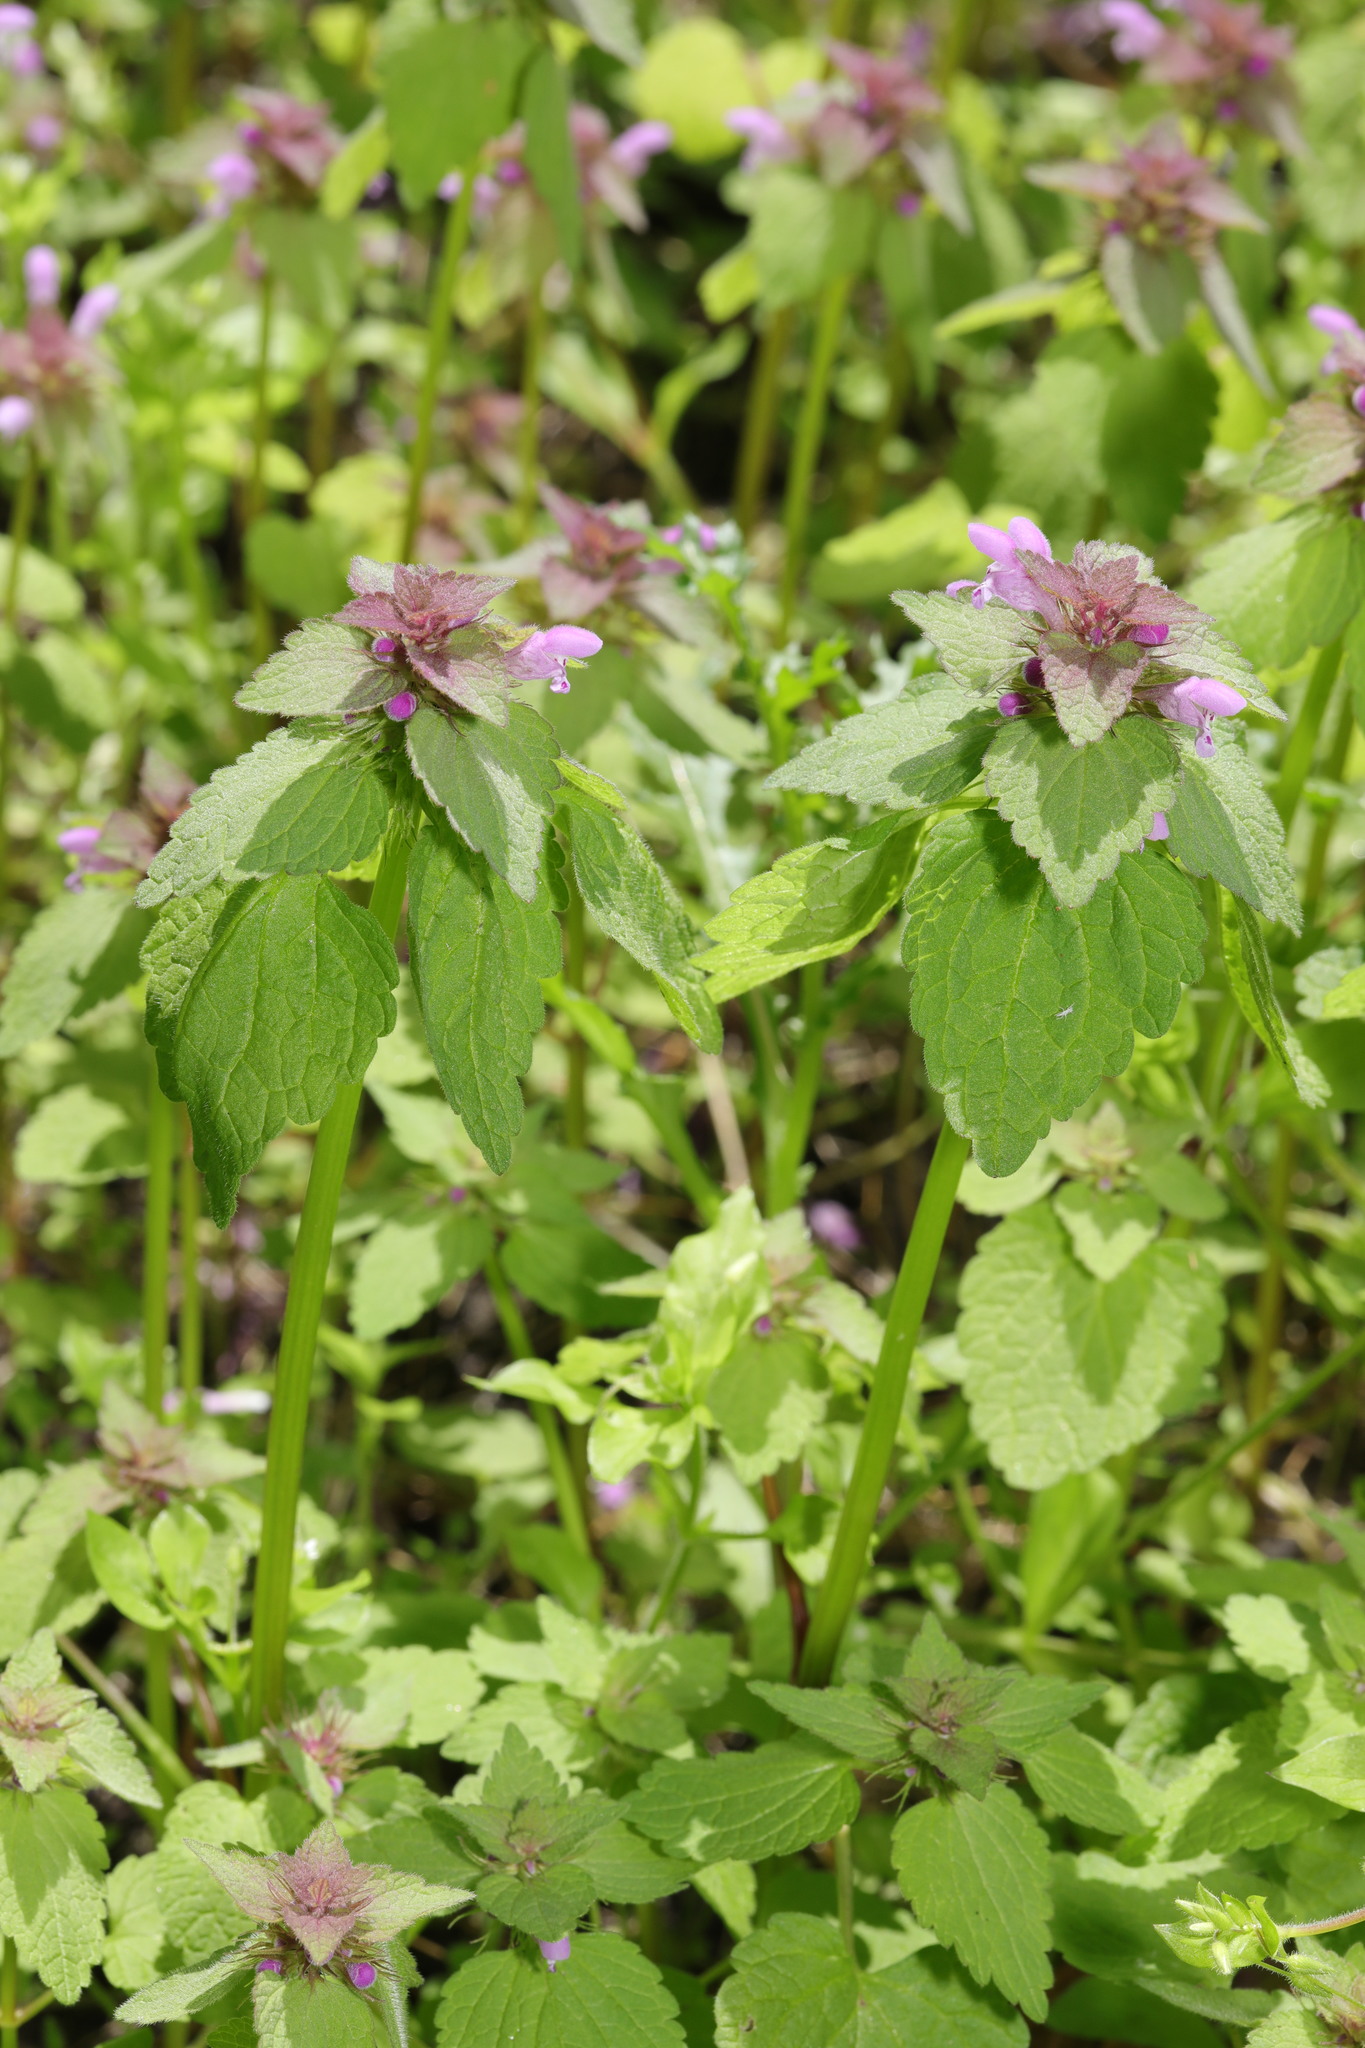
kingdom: Plantae
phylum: Tracheophyta
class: Magnoliopsida
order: Lamiales
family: Lamiaceae
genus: Lamium
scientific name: Lamium purpureum
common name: Red dead-nettle
